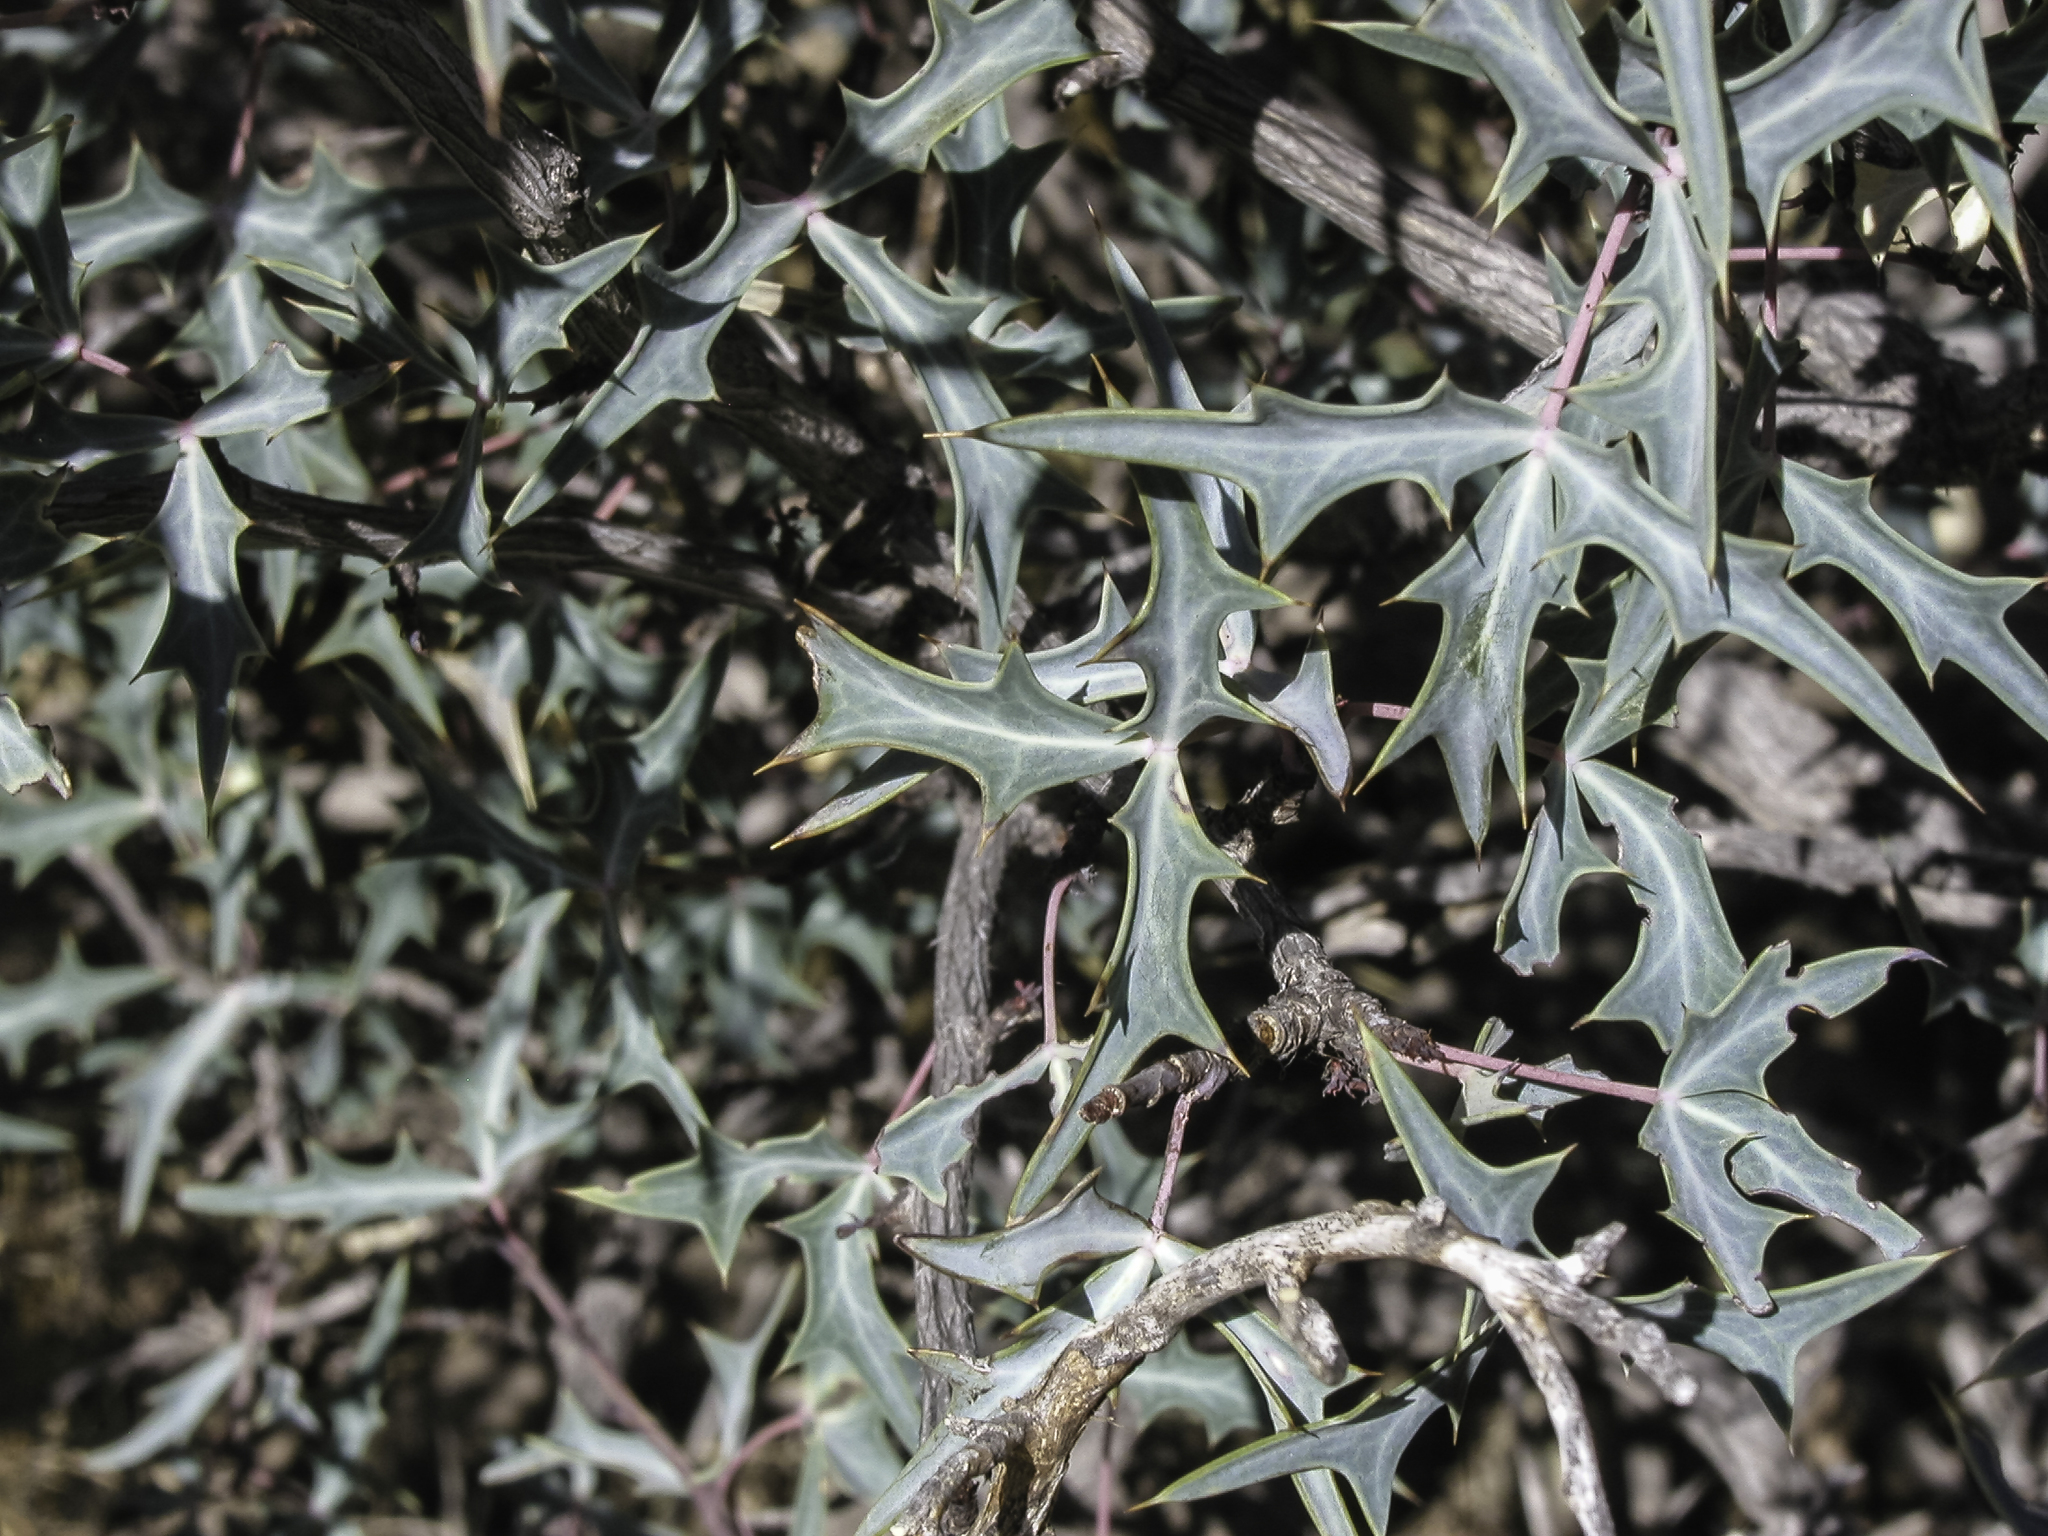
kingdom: Plantae
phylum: Tracheophyta
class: Magnoliopsida
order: Ranunculales
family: Berberidaceae
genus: Alloberberis
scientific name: Alloberberis haematocarpa
